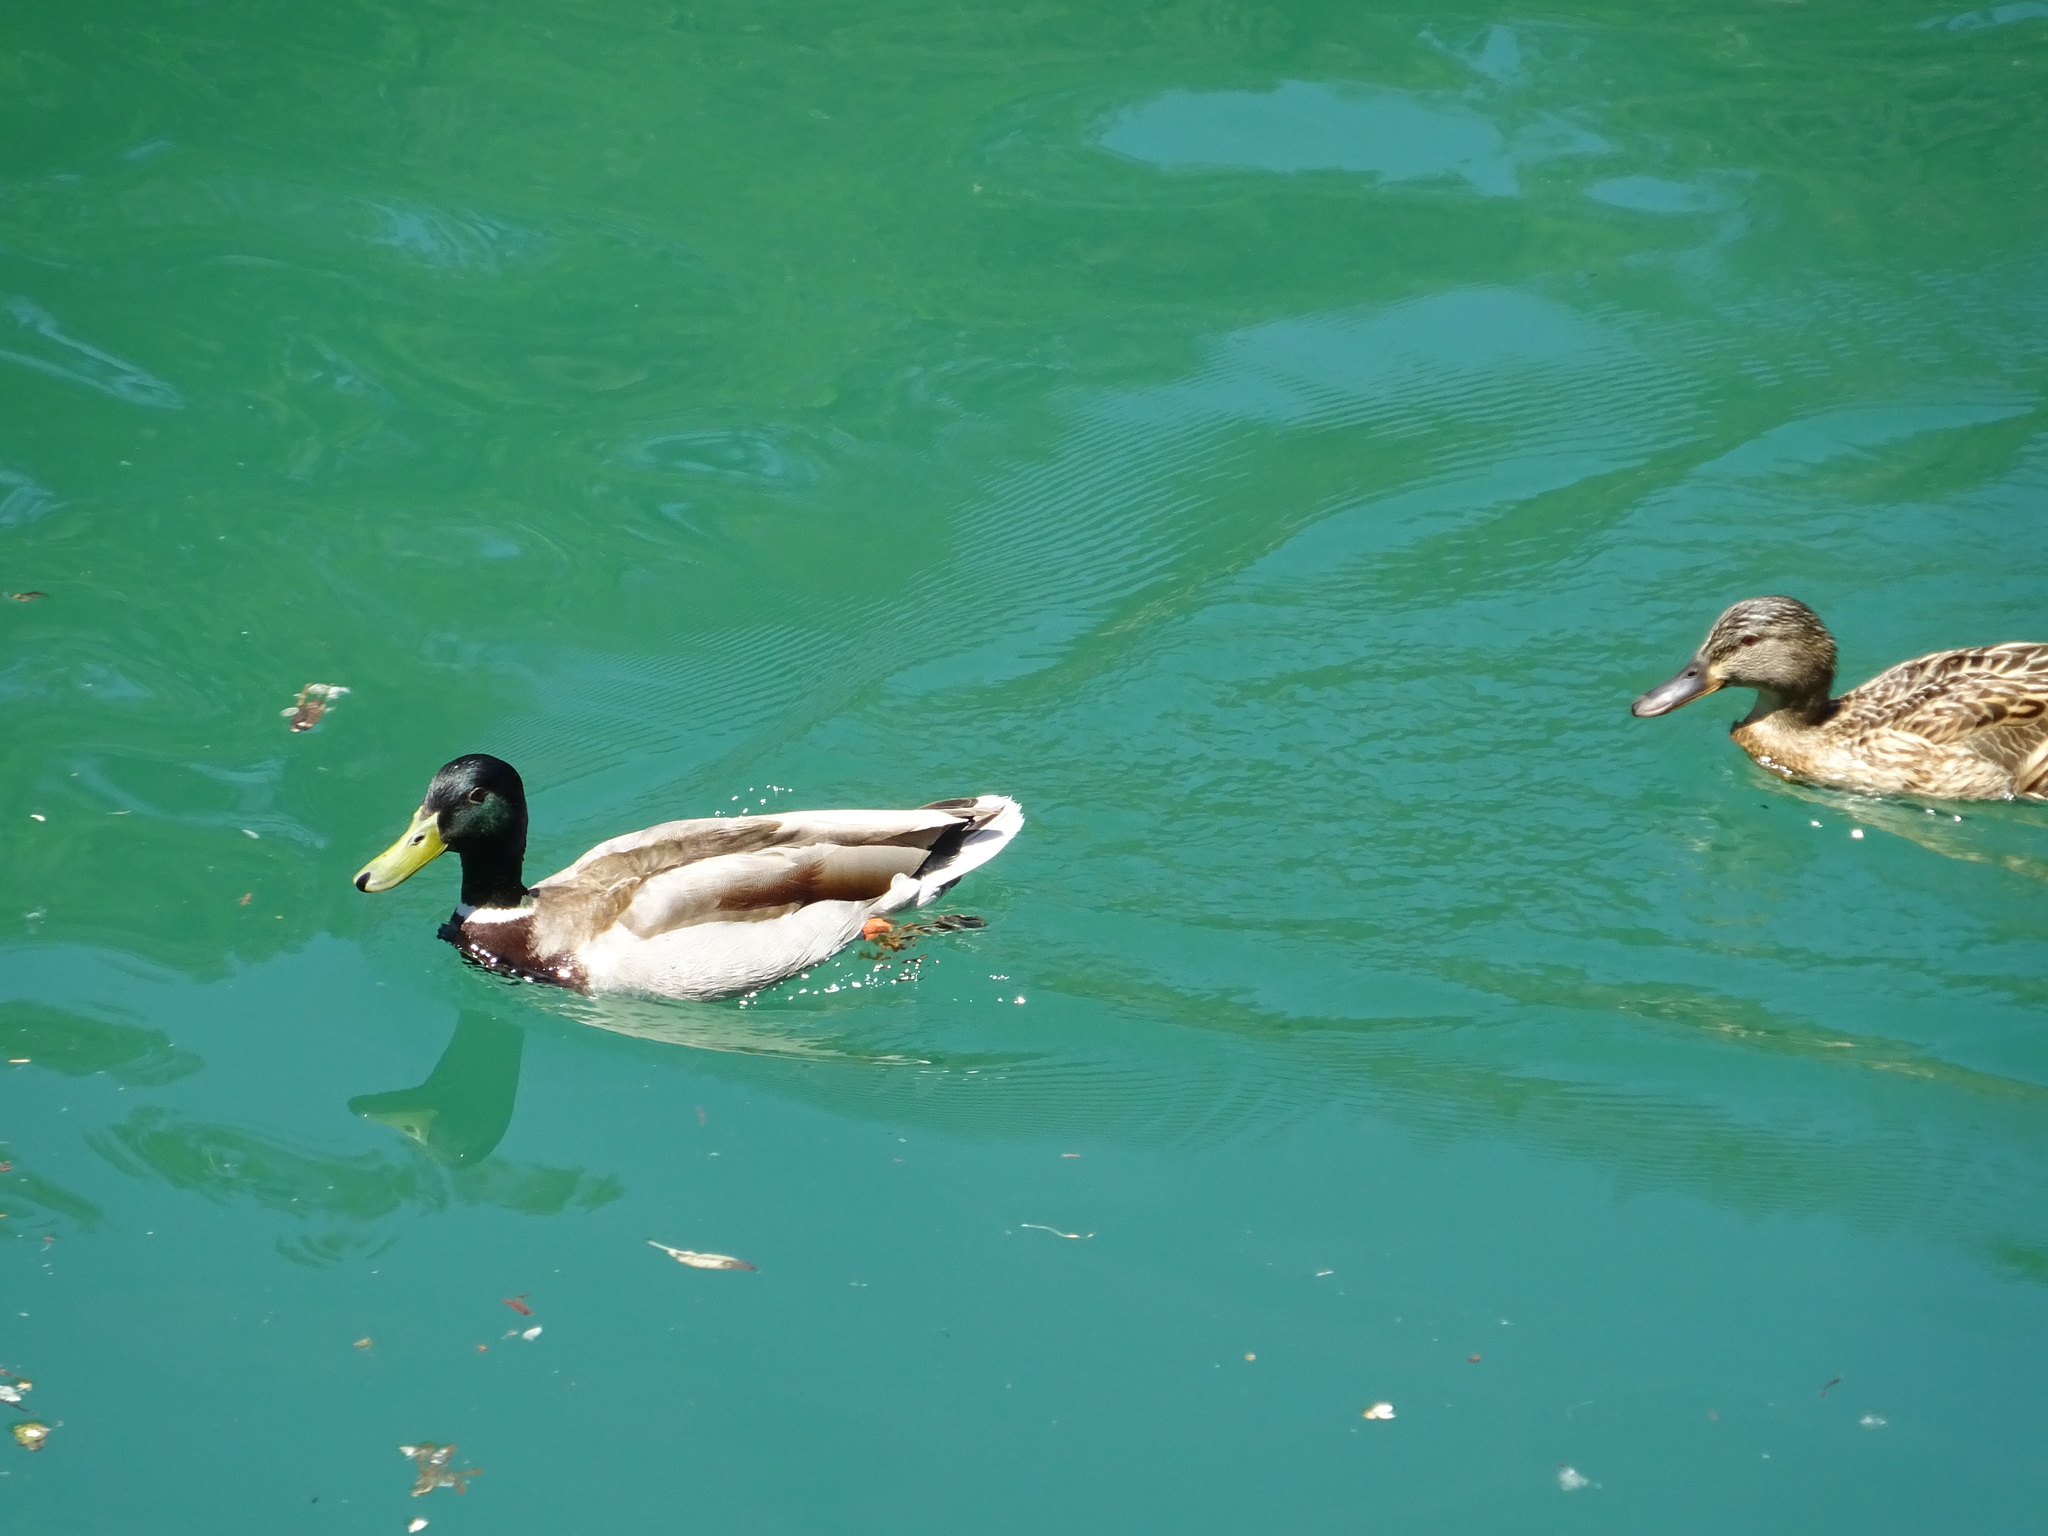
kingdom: Animalia
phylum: Chordata
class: Aves
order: Anseriformes
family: Anatidae
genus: Anas
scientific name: Anas platyrhynchos
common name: Mallard
